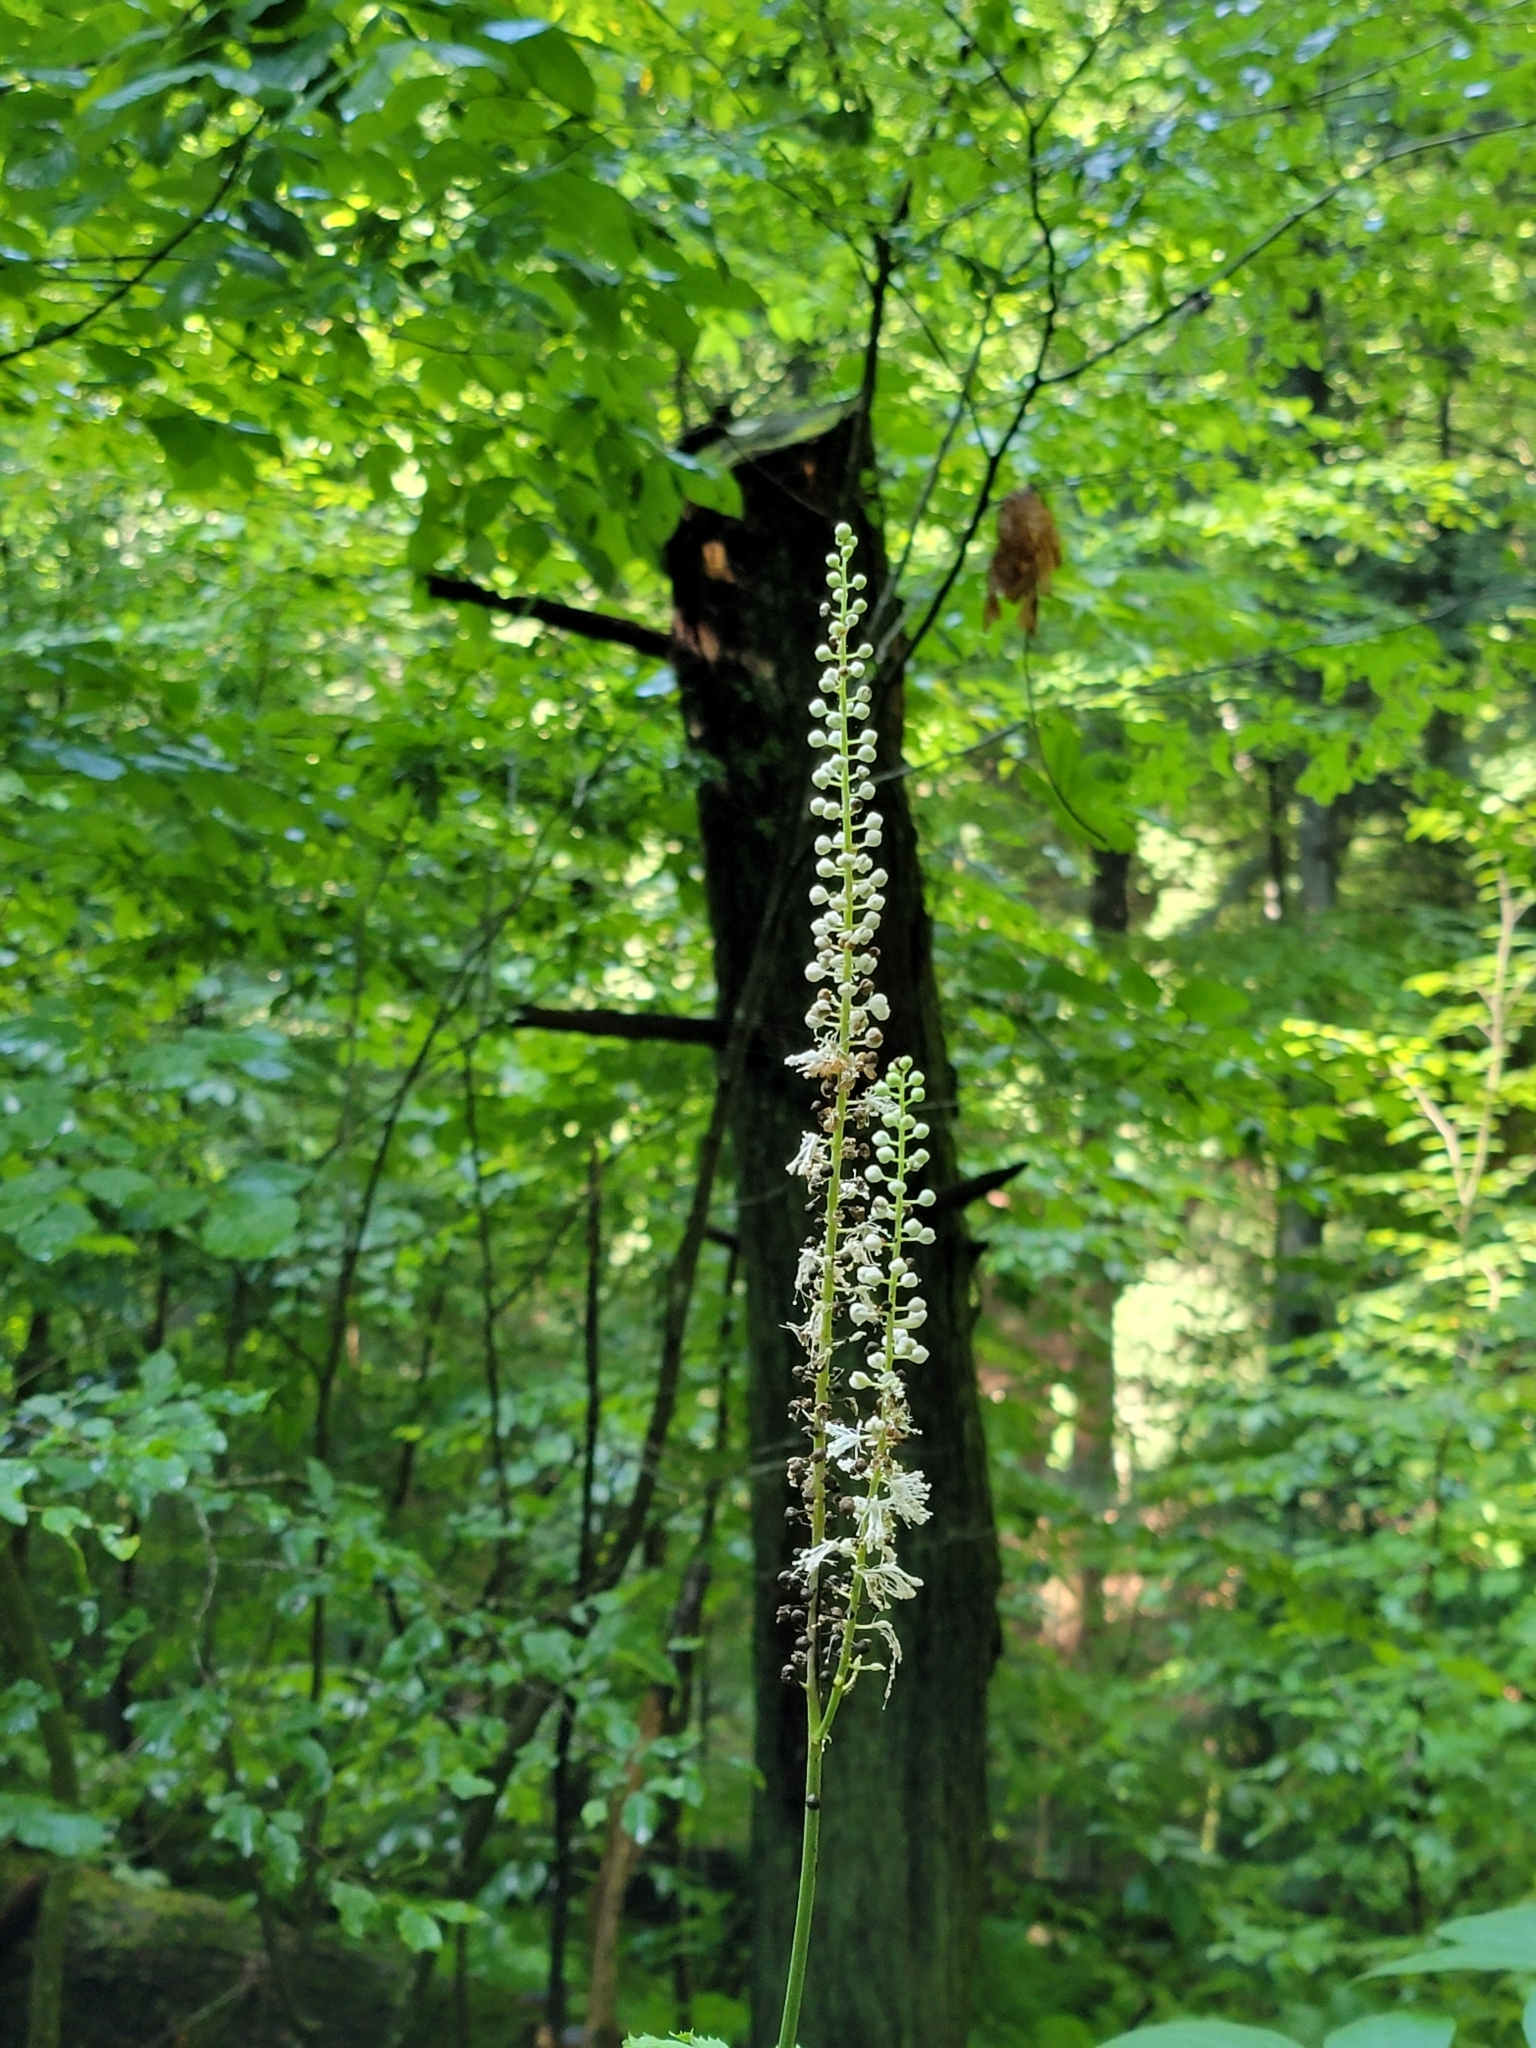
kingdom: Plantae
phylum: Tracheophyta
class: Magnoliopsida
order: Ranunculales
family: Ranunculaceae
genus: Actaea
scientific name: Actaea racemosa
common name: Black cohosh
